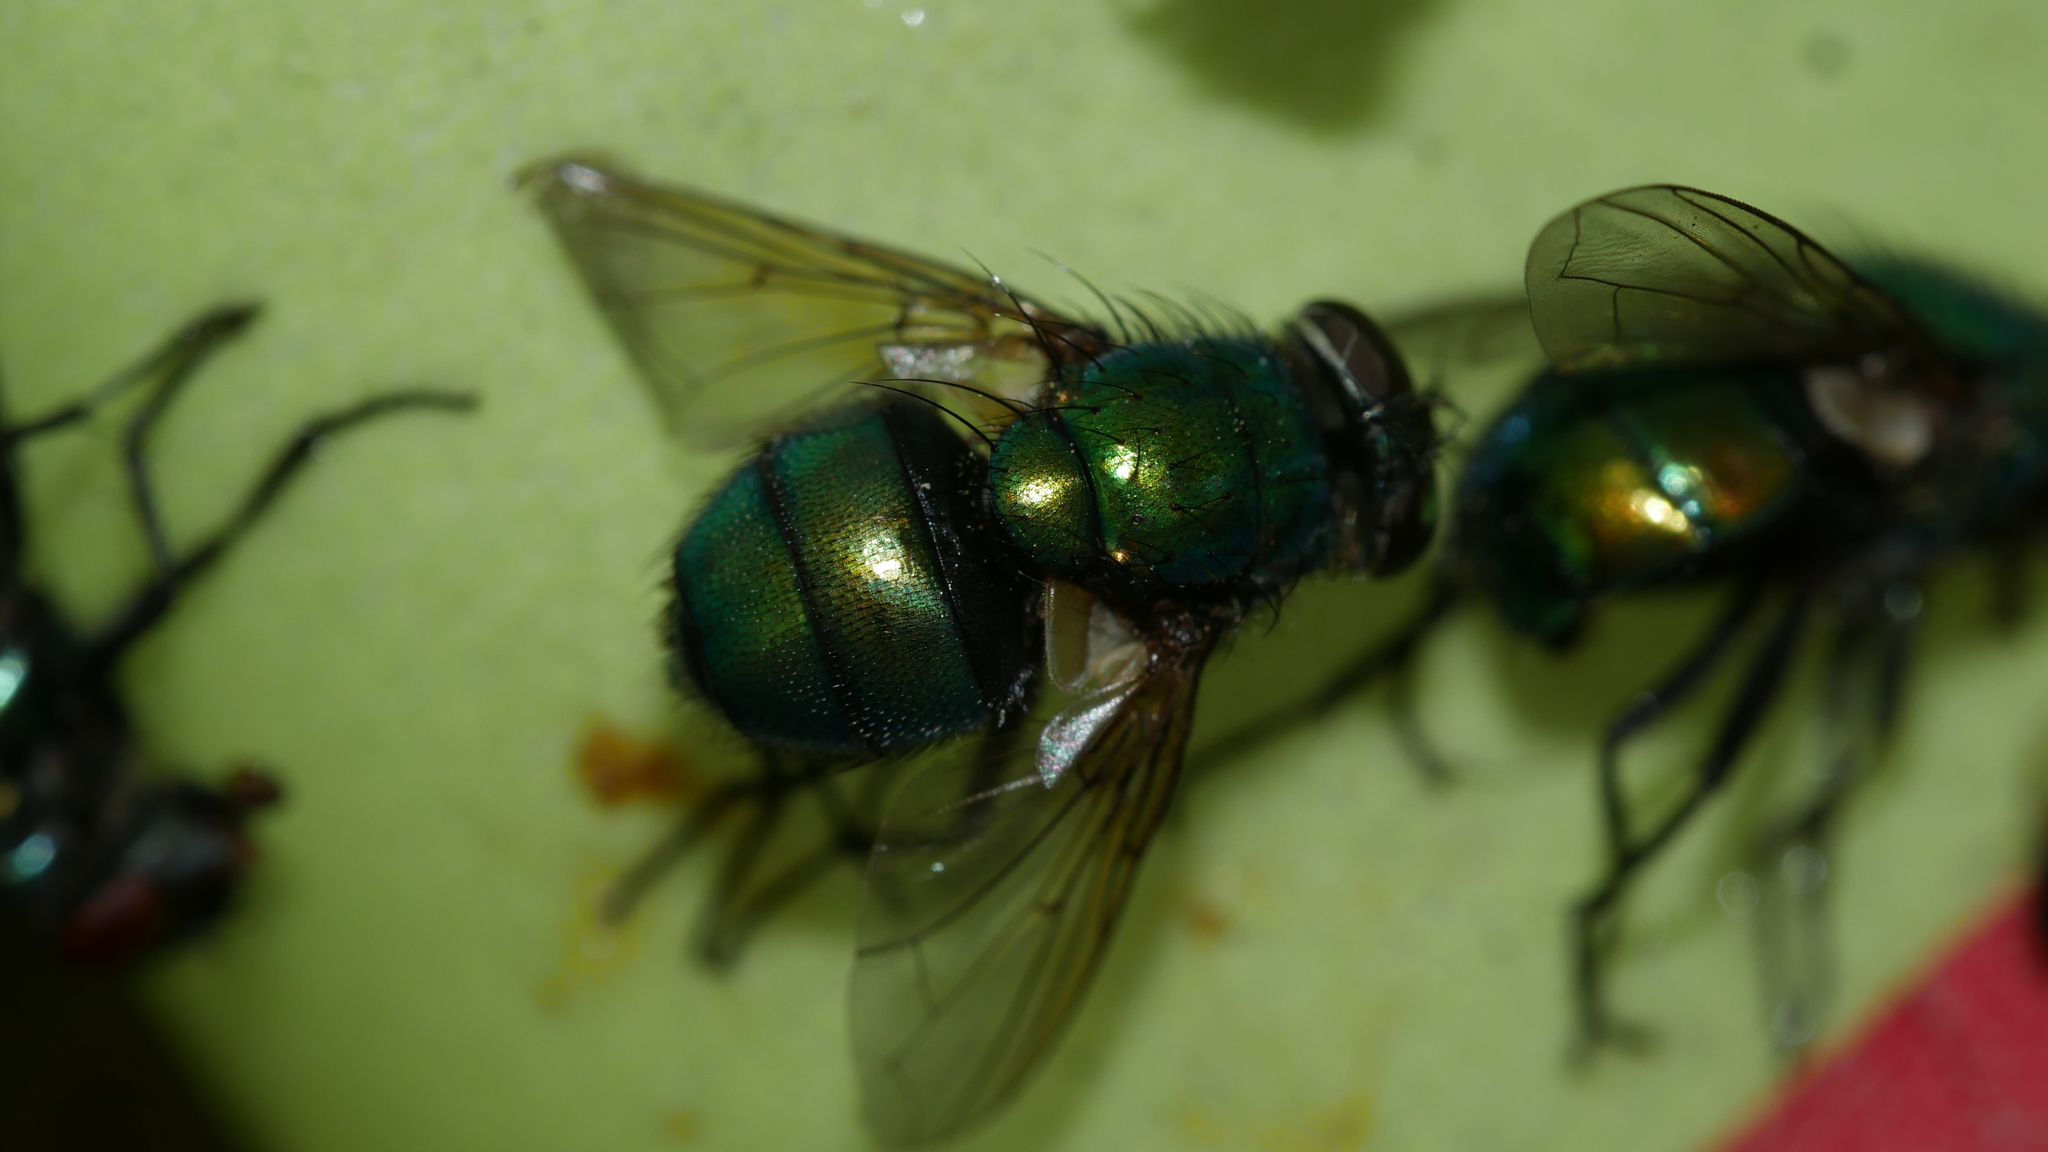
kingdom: Animalia
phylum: Arthropoda
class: Insecta
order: Diptera
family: Calliphoridae
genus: Lucilia
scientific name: Lucilia caeruleiviridis
